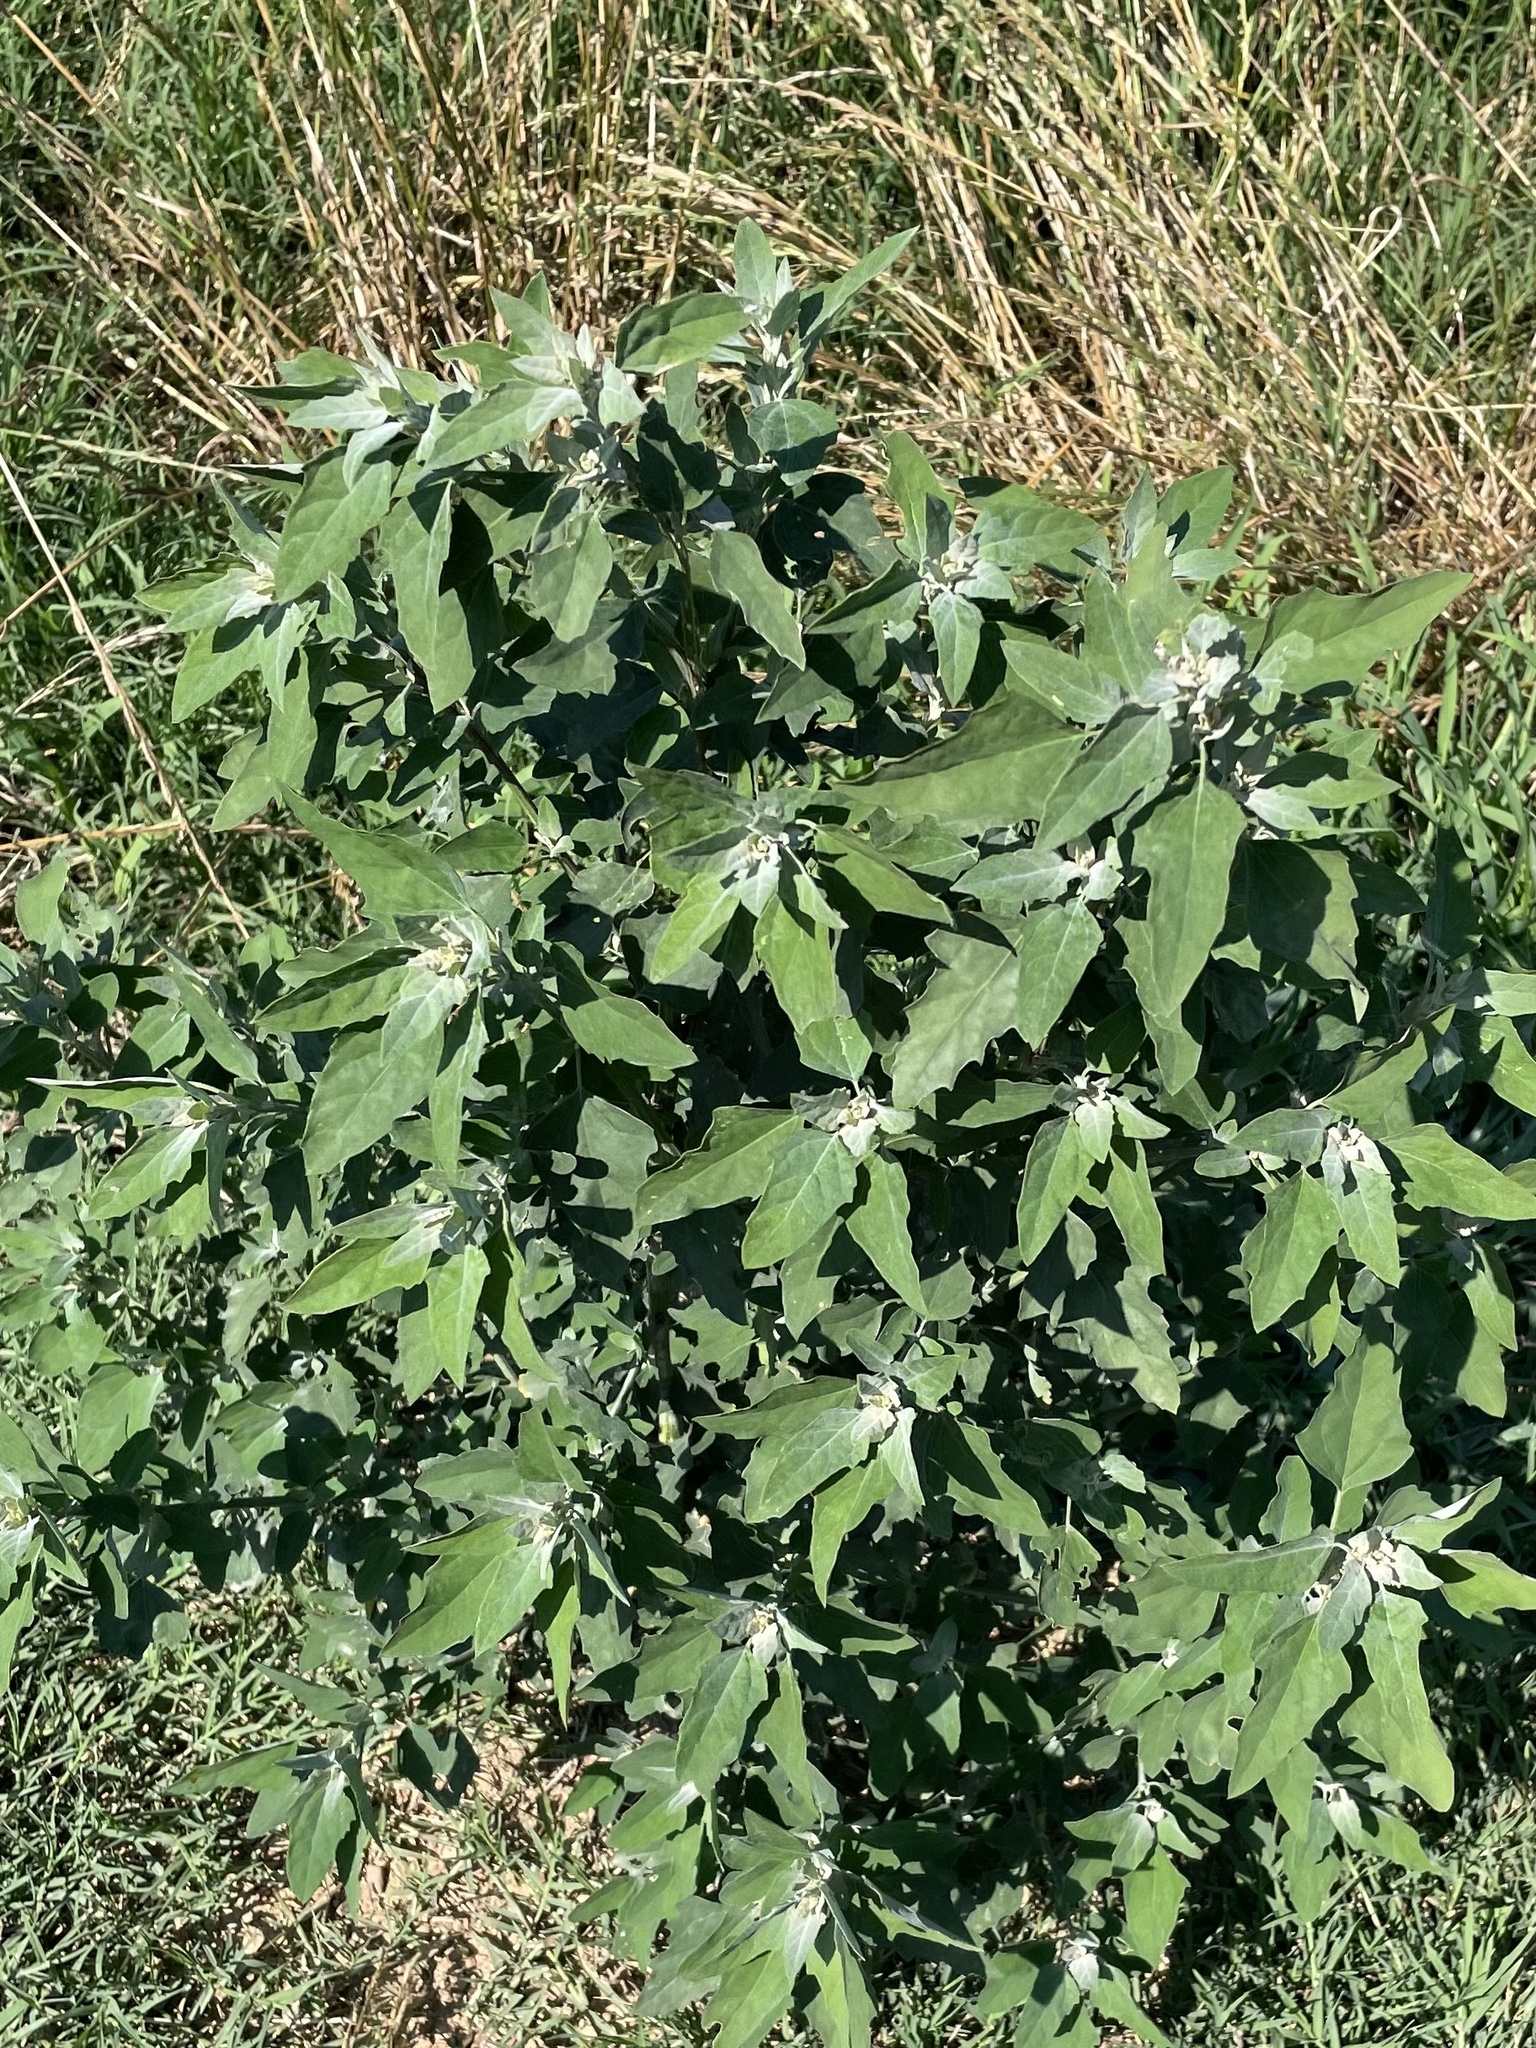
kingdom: Plantae
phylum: Tracheophyta
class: Magnoliopsida
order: Caryophyllales
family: Amaranthaceae
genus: Chenopodium
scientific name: Chenopodium album
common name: Fat-hen
